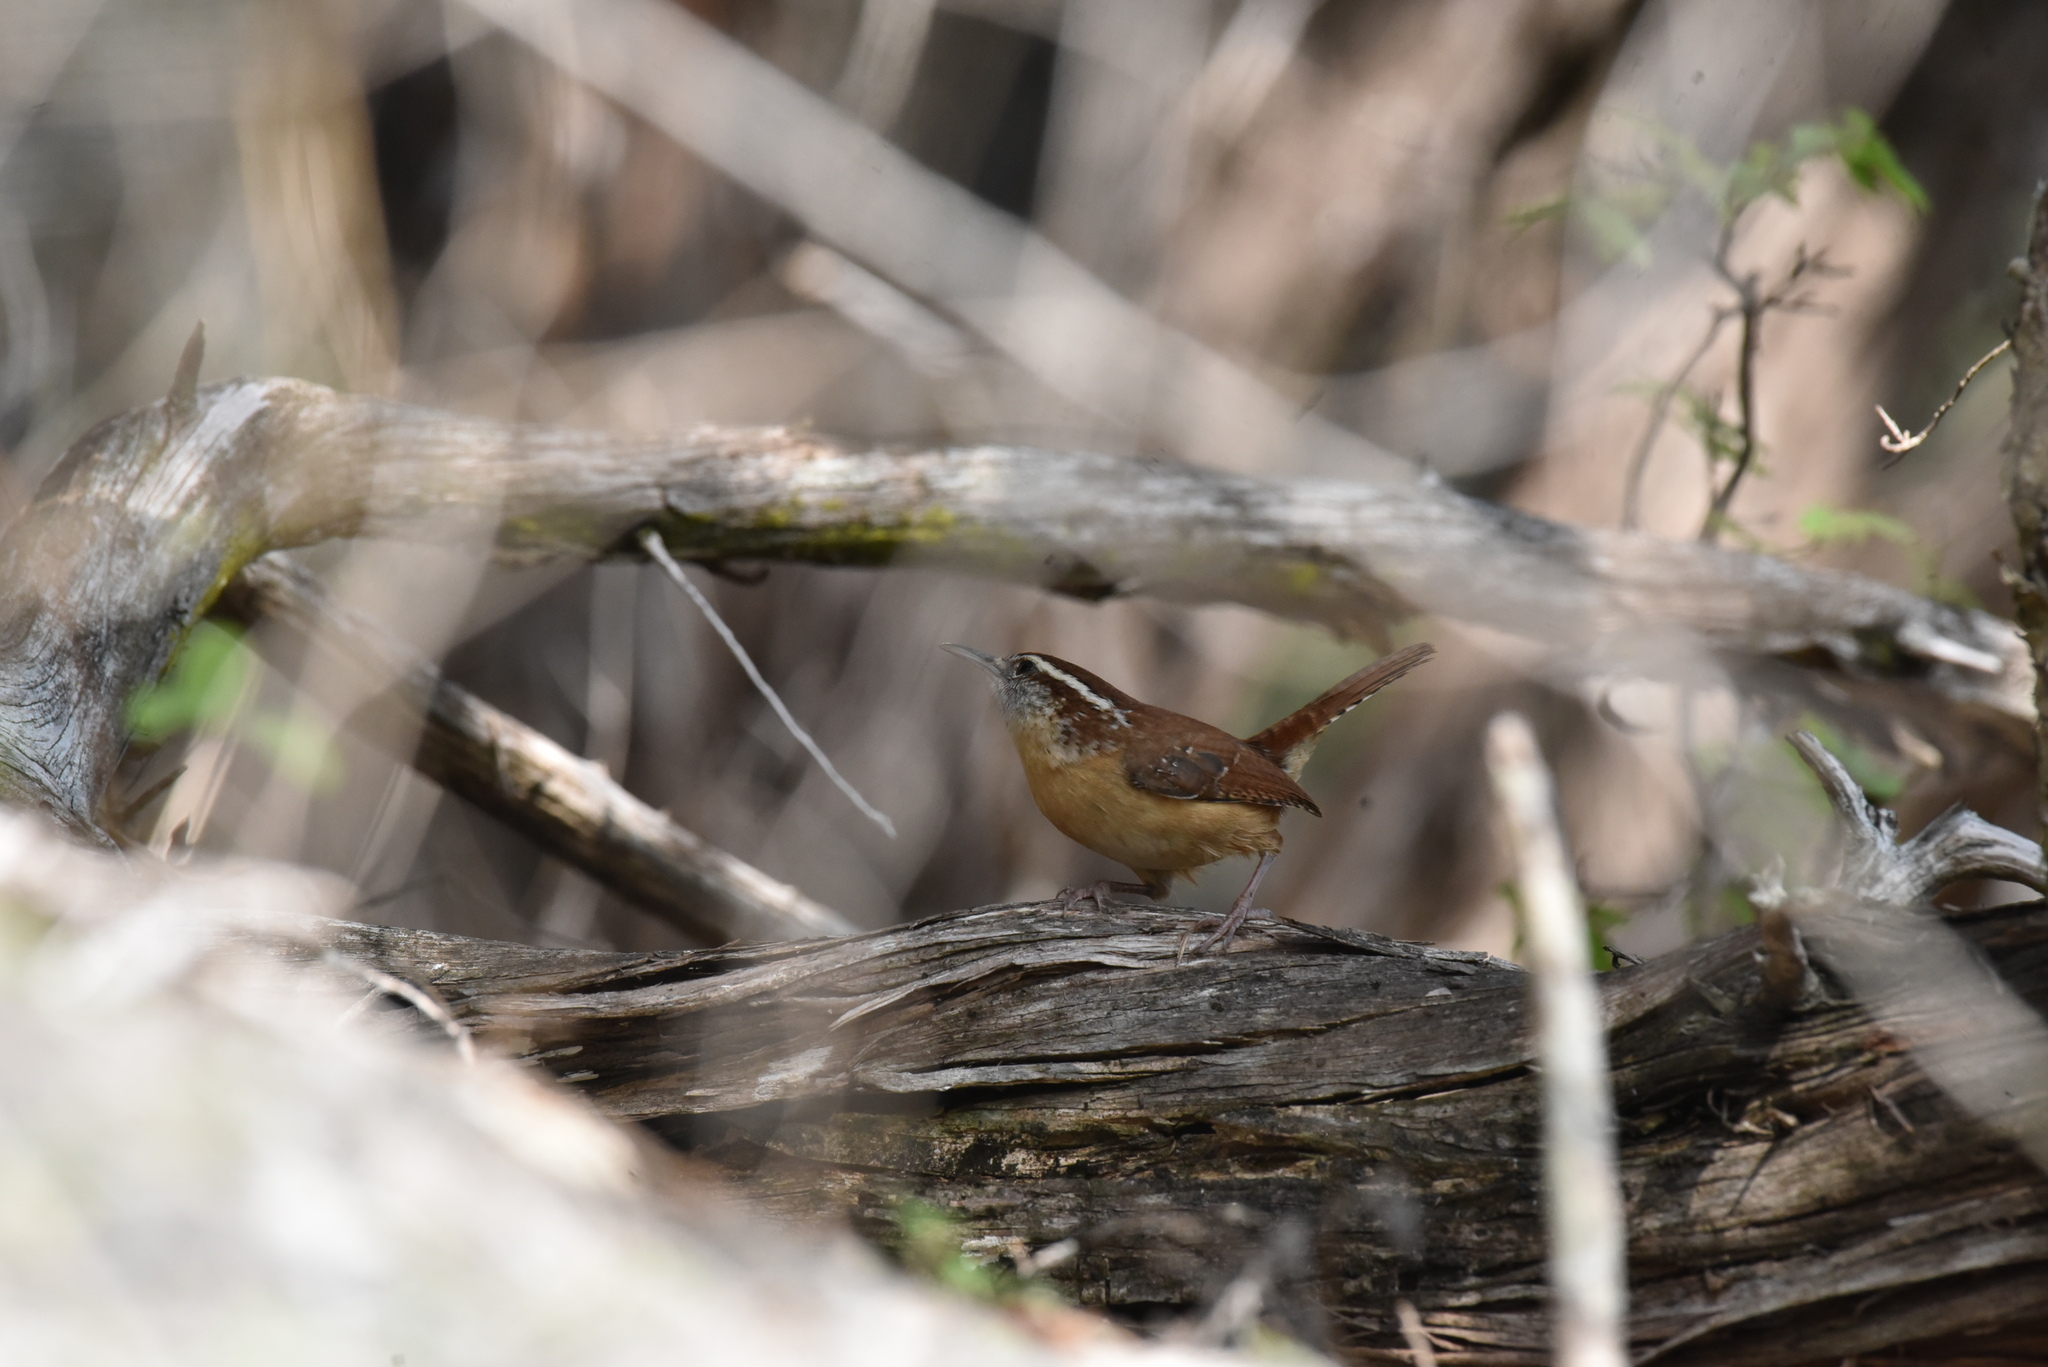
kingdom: Animalia
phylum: Chordata
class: Aves
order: Passeriformes
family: Troglodytidae
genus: Thryothorus
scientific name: Thryothorus ludovicianus
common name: Carolina wren
